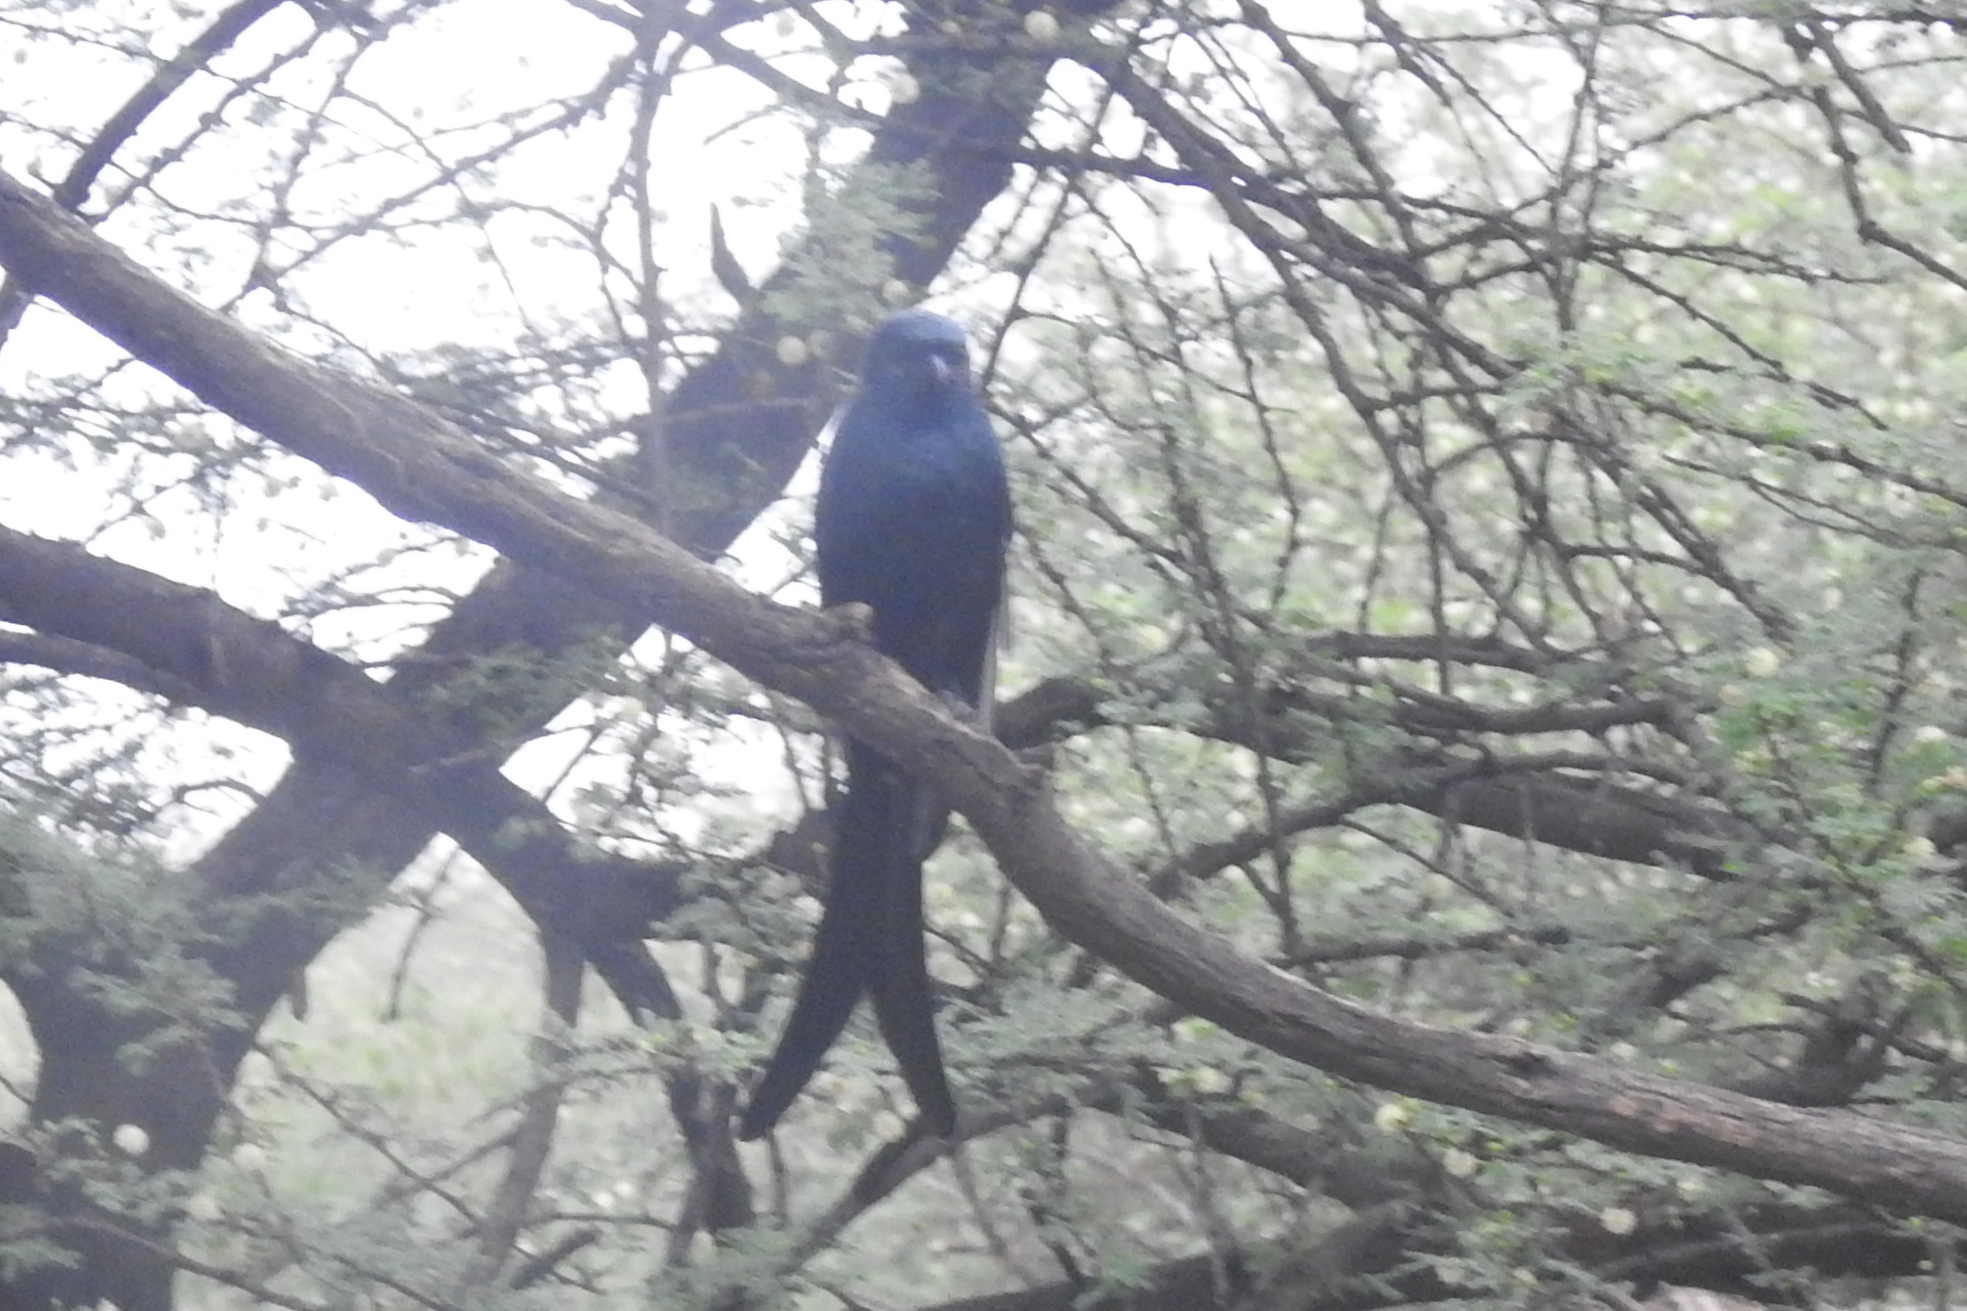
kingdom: Animalia
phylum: Chordata
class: Aves
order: Passeriformes
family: Dicruridae
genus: Dicrurus
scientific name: Dicrurus macrocercus
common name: Black drongo
